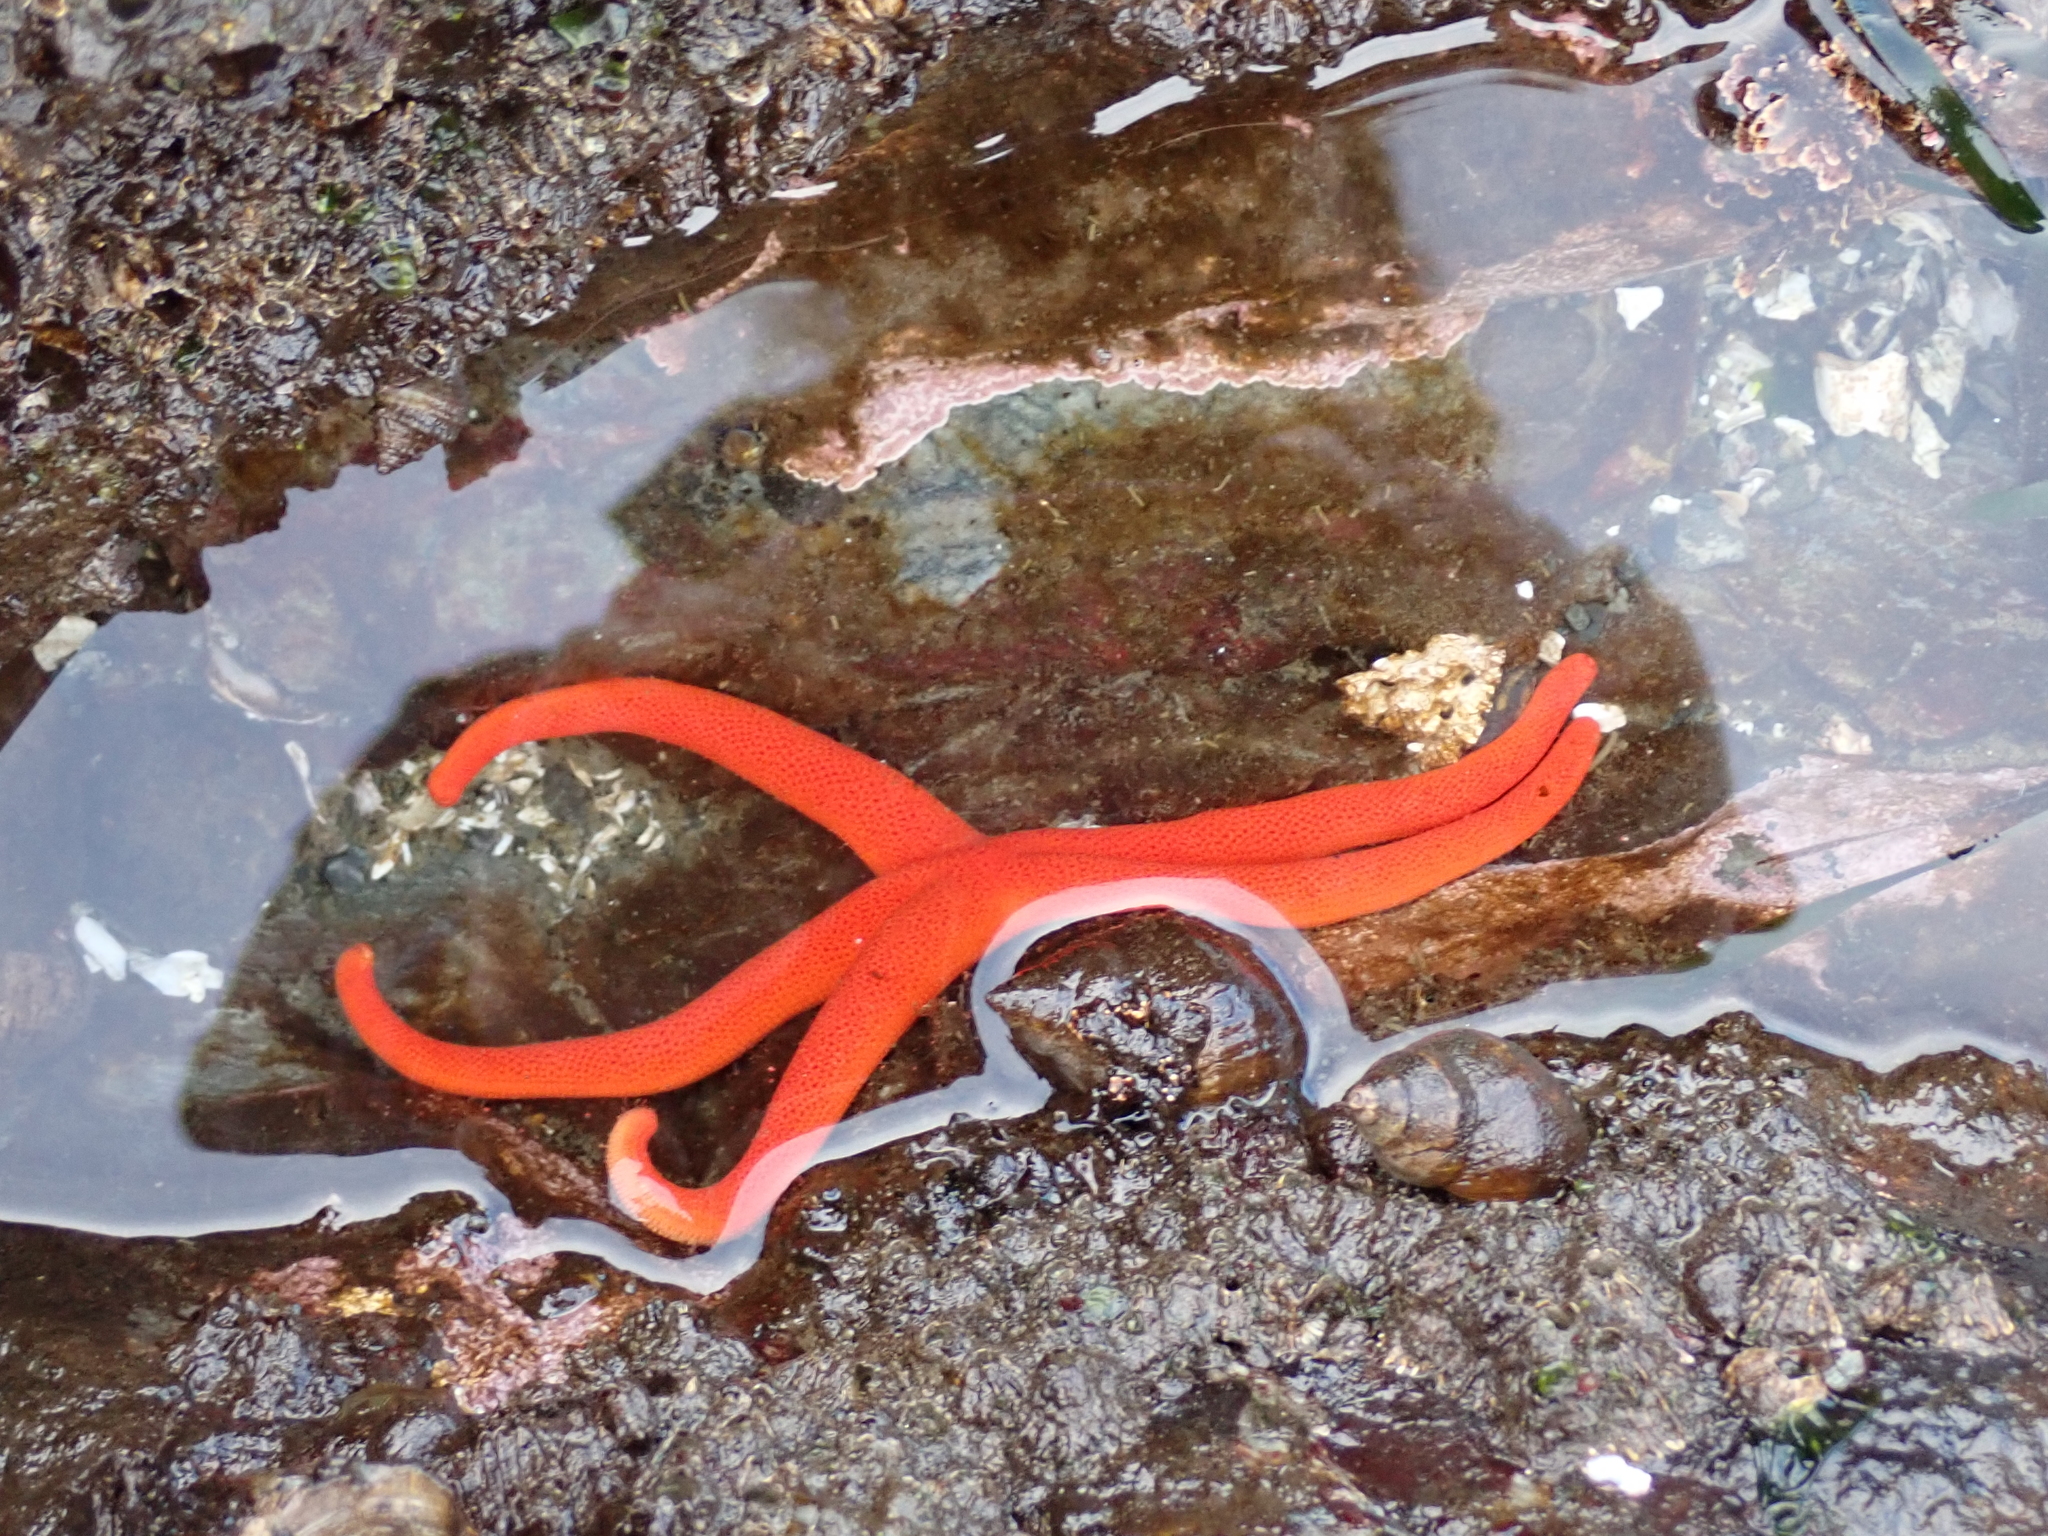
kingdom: Animalia
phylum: Echinodermata
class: Asteroidea
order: Spinulosida
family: Echinasteridae
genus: Henricia
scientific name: Henricia leviuscula
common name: Pacific blood star
